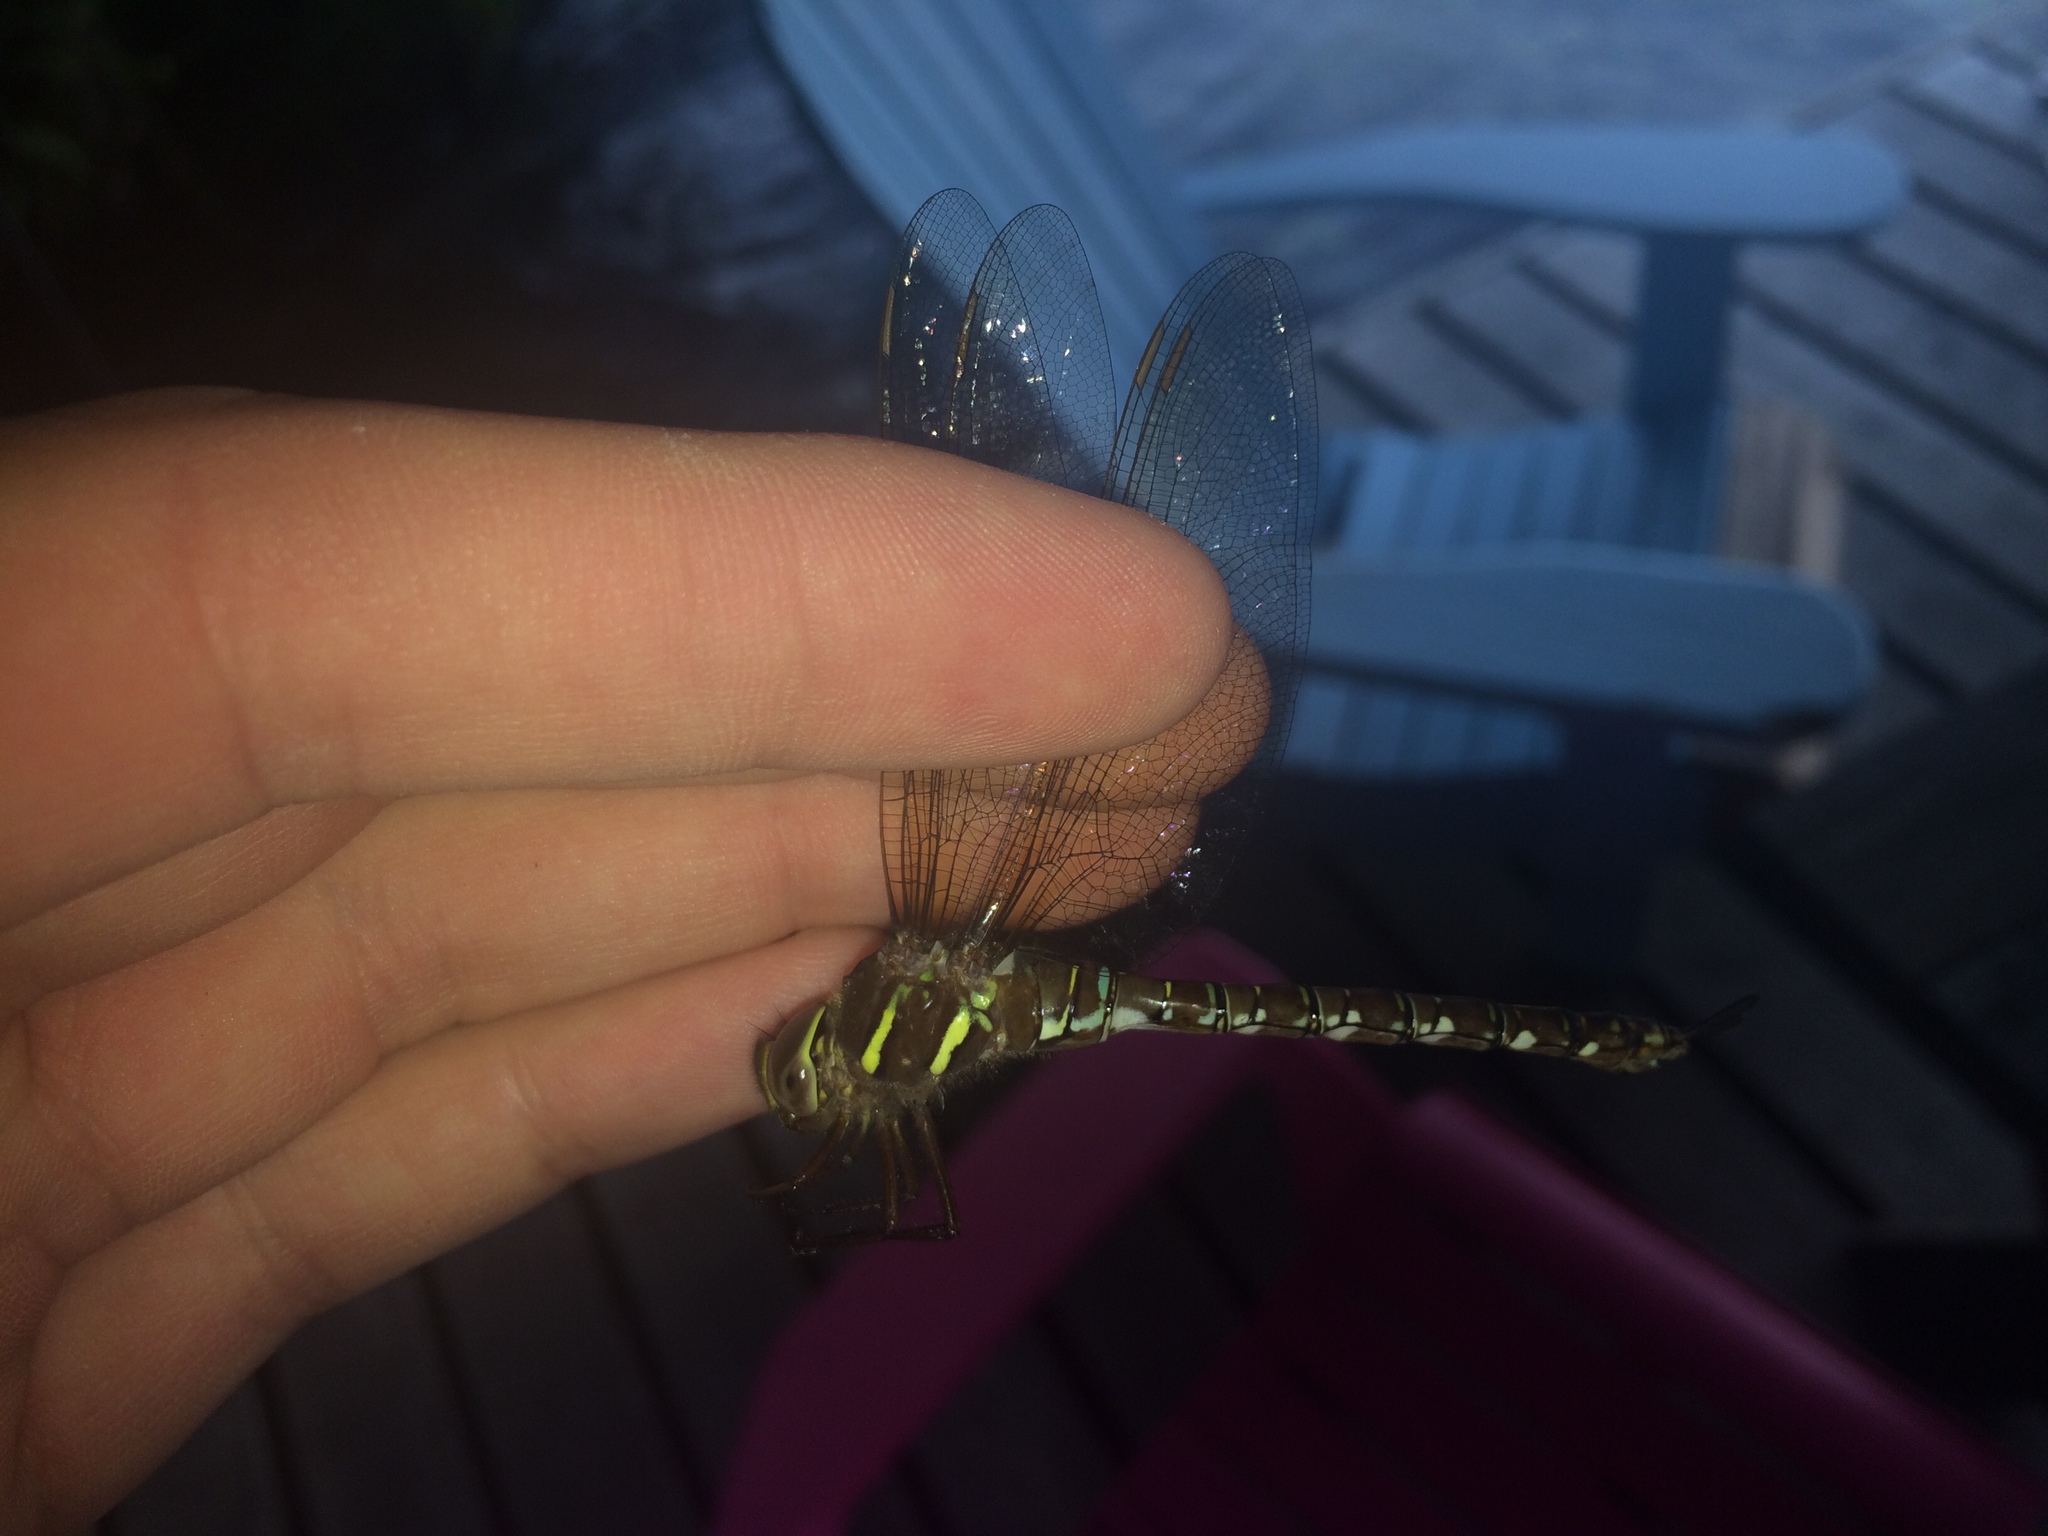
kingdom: Animalia
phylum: Arthropoda
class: Insecta
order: Odonata
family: Aeshnidae
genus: Aeshna
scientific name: Aeshna umbrosa
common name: Shadow darner
